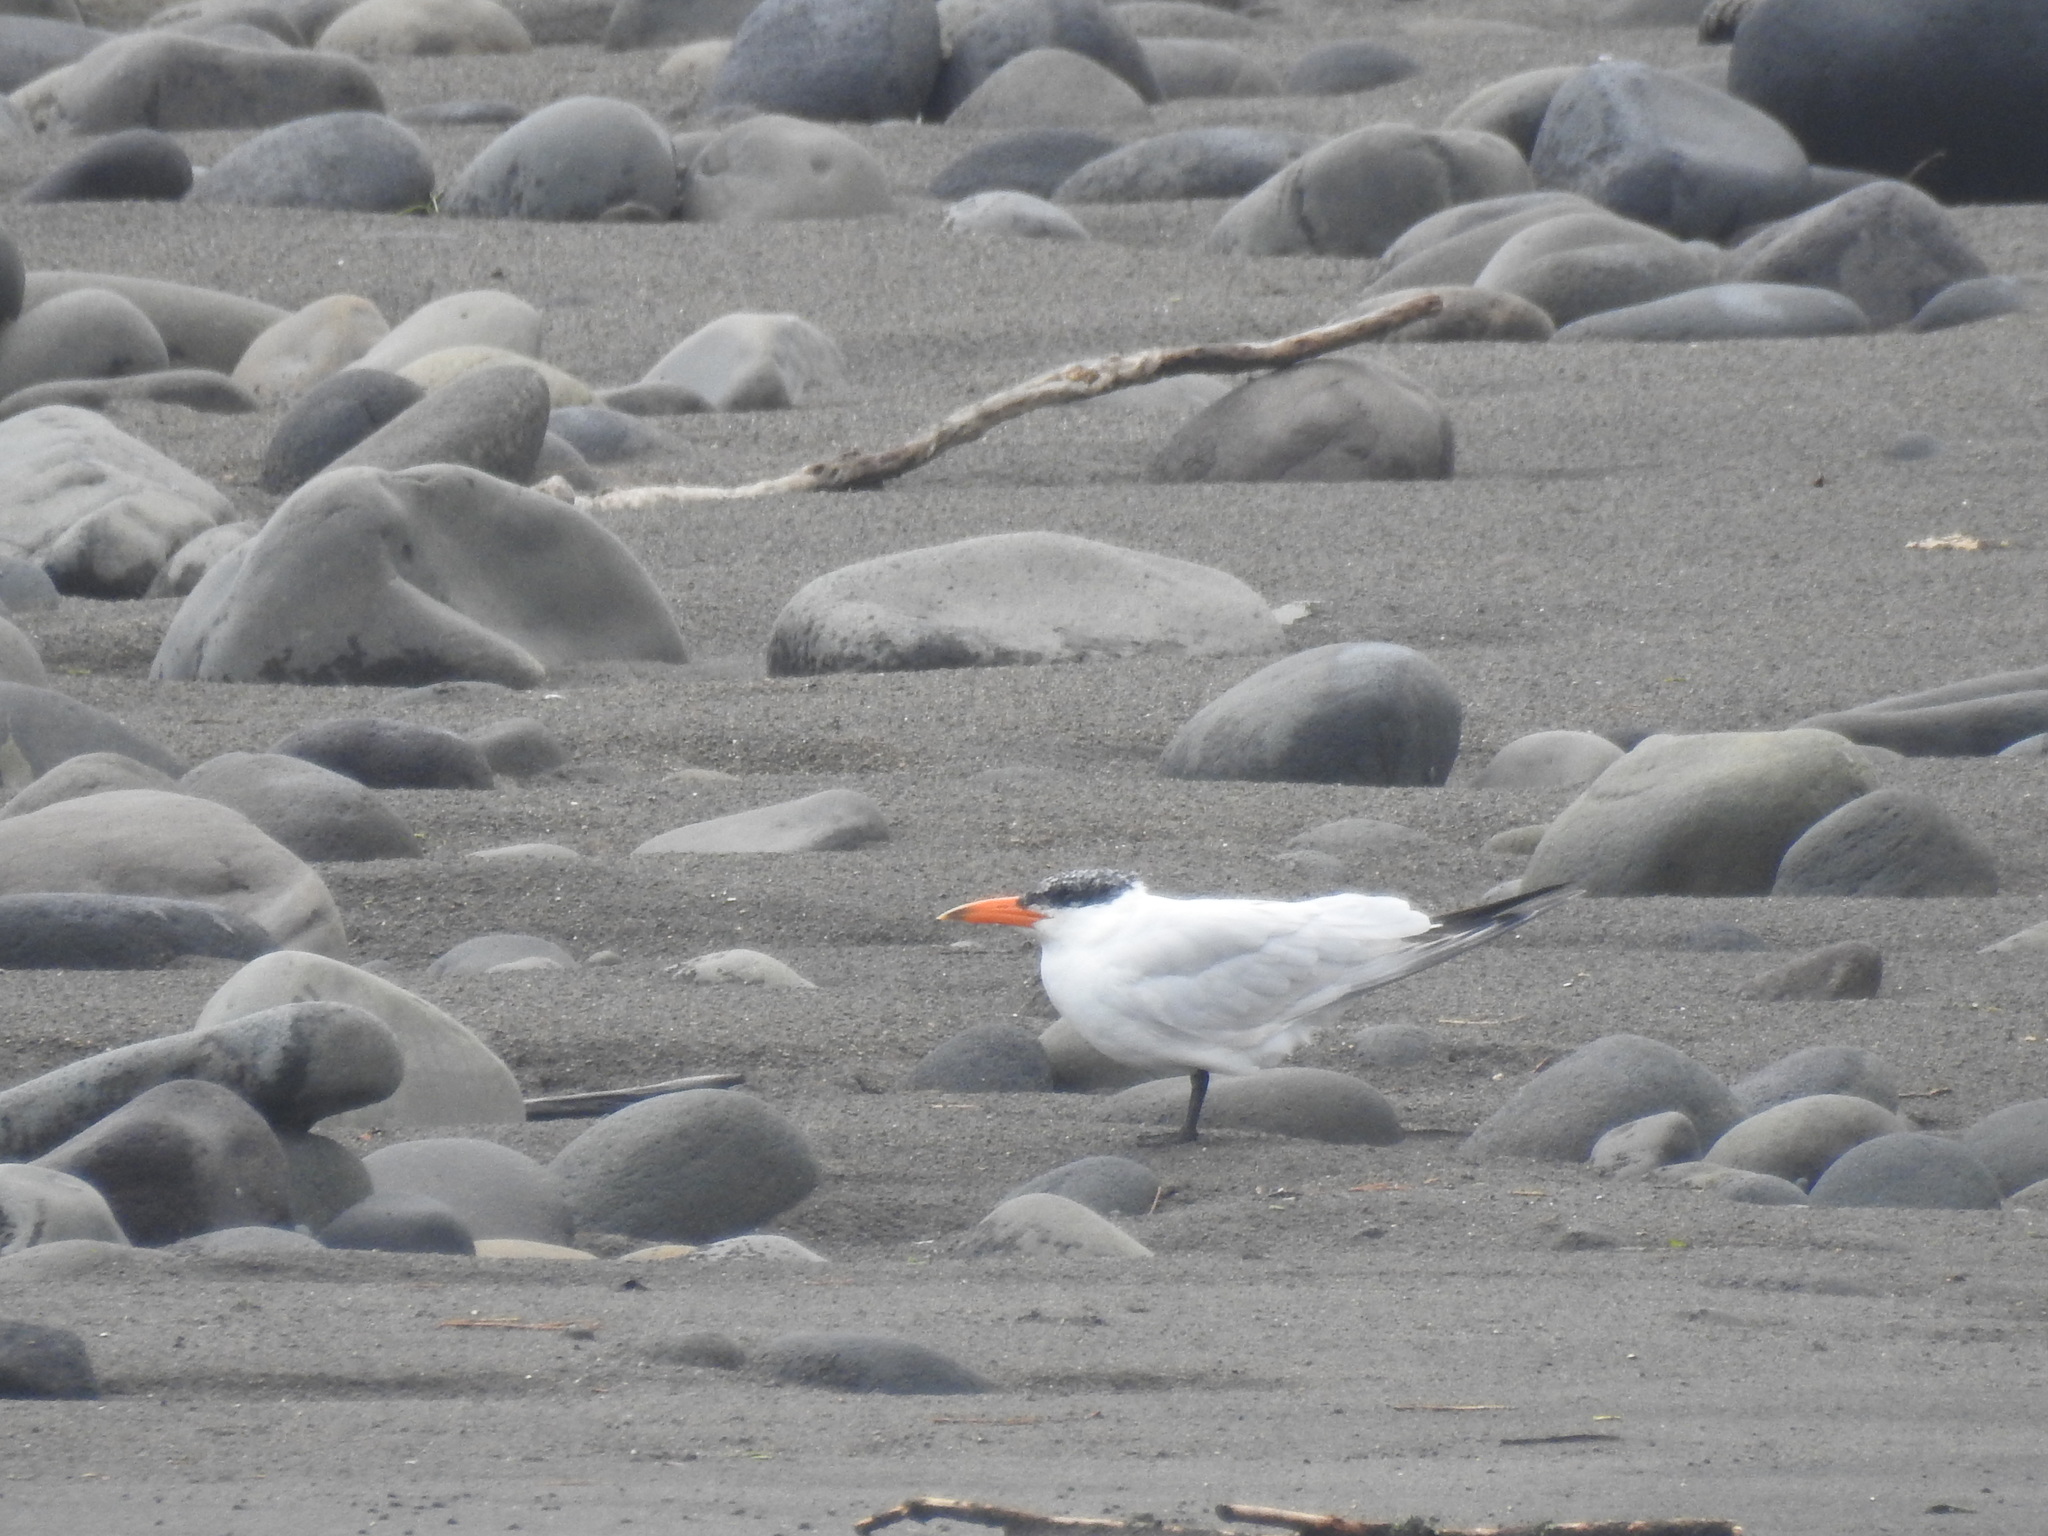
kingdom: Animalia
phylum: Chordata
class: Aves
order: Charadriiformes
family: Laridae
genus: Hydroprogne
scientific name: Hydroprogne caspia
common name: Caspian tern
